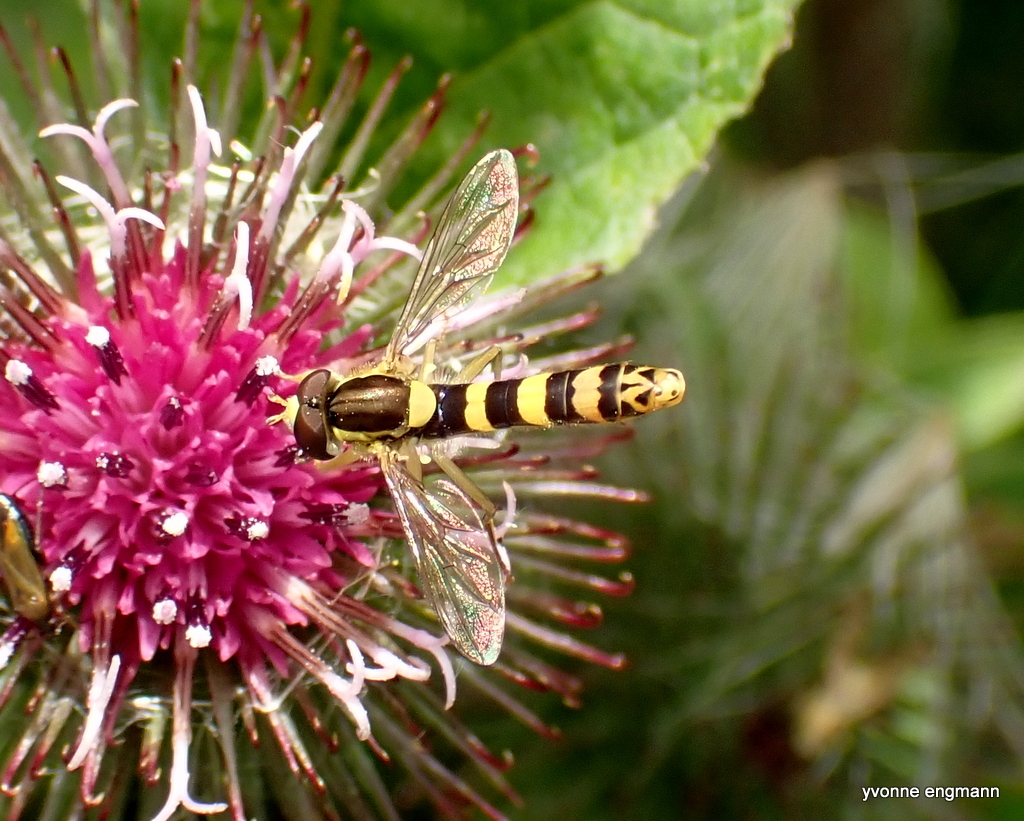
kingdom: Animalia
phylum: Arthropoda
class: Insecta
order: Diptera
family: Syrphidae
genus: Sphaerophoria
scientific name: Sphaerophoria scripta
